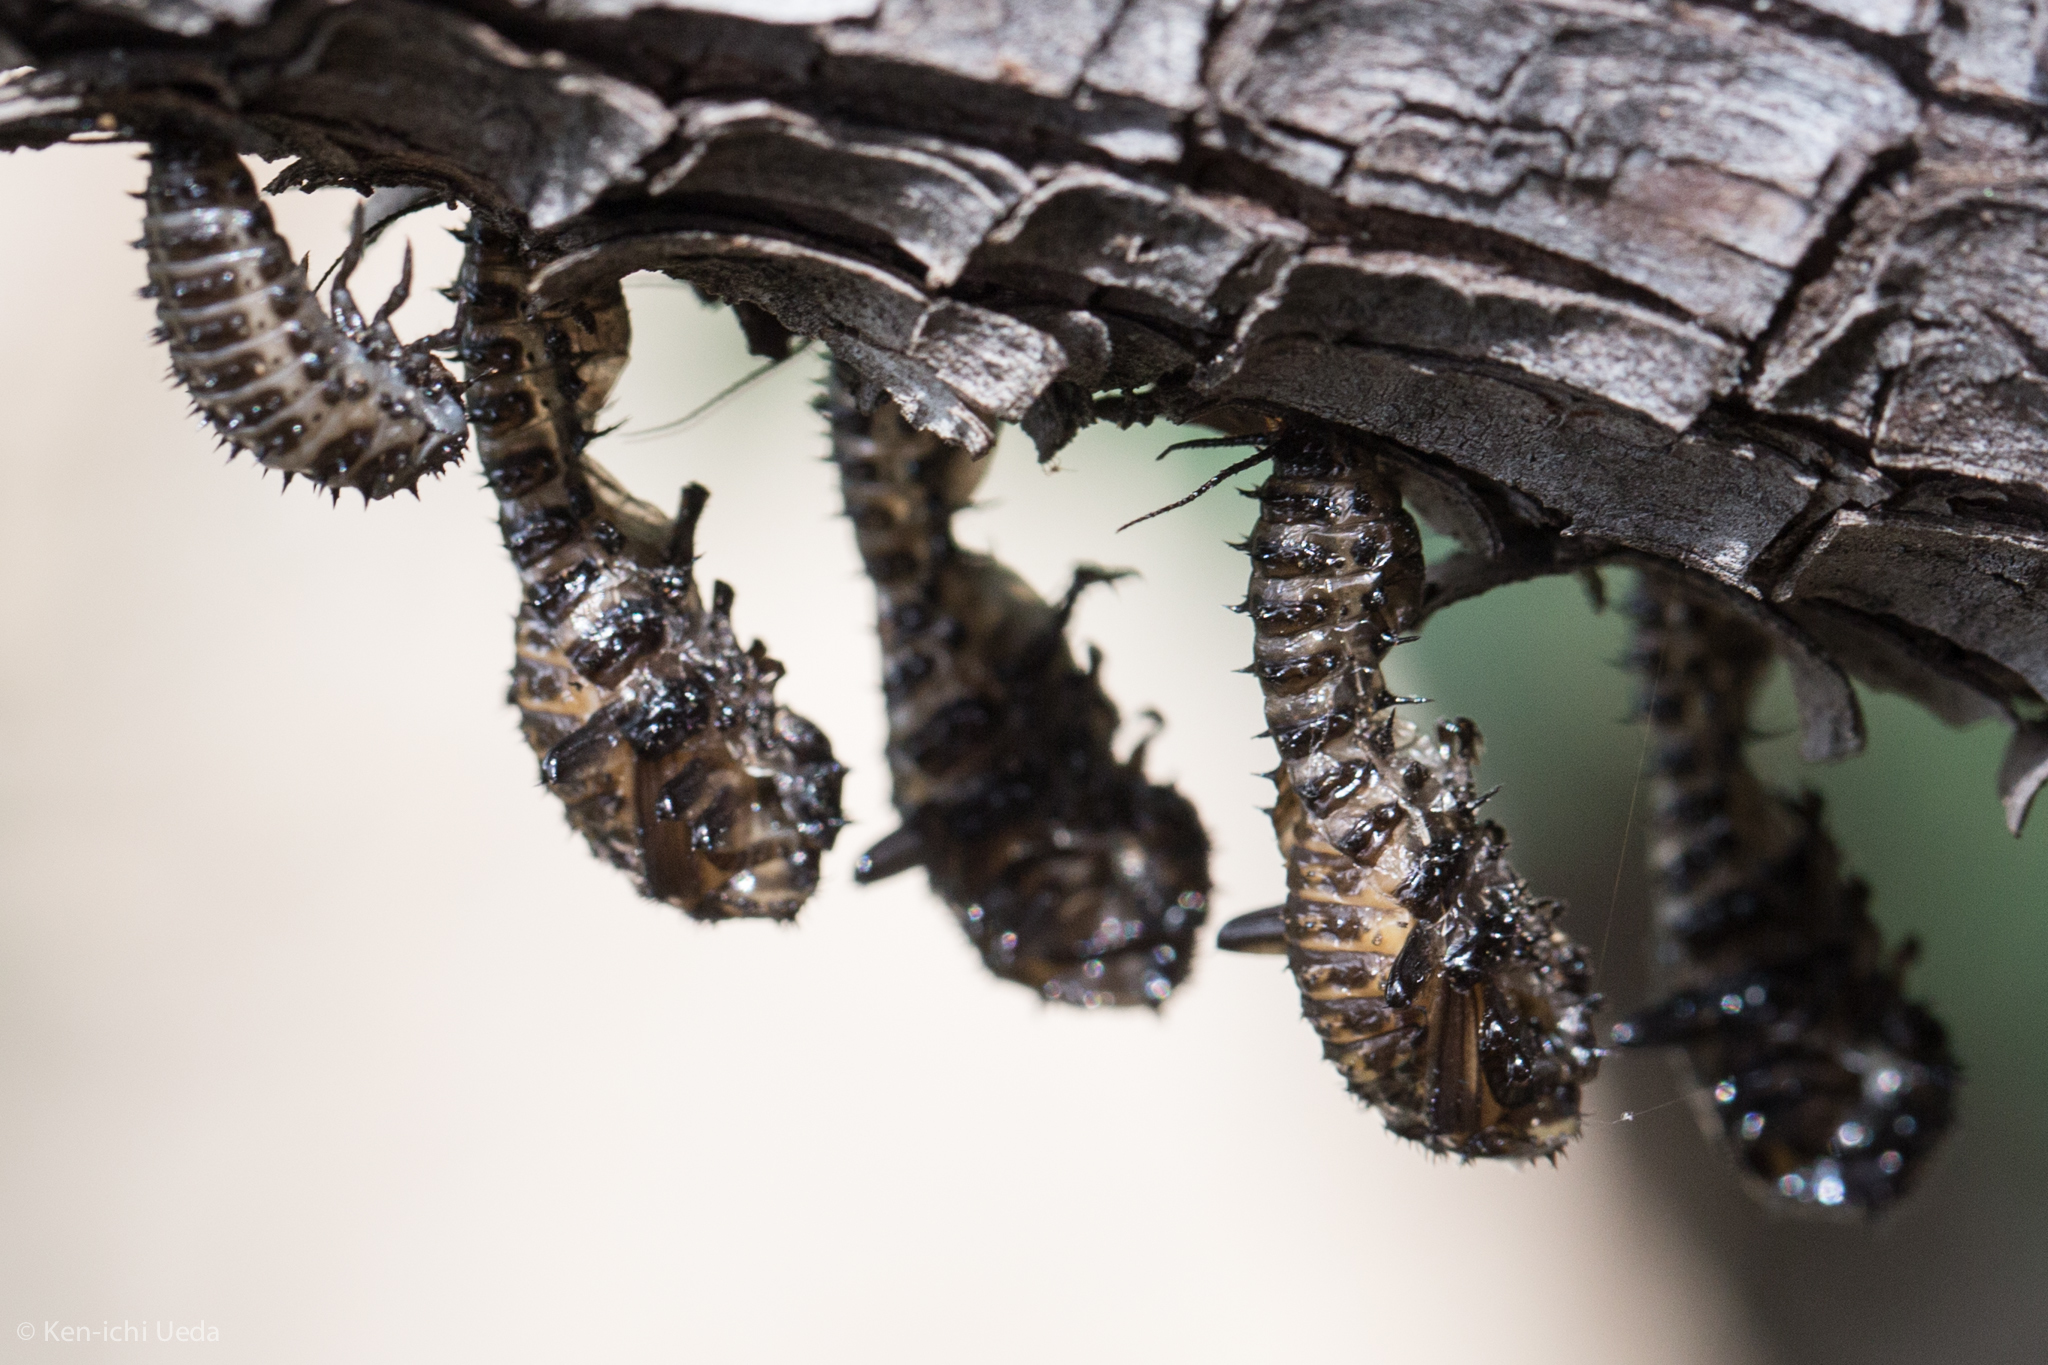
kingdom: Animalia
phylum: Arthropoda
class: Insecta
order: Coleoptera
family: Erotylidae
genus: Gibbifer
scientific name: Gibbifer californicus
